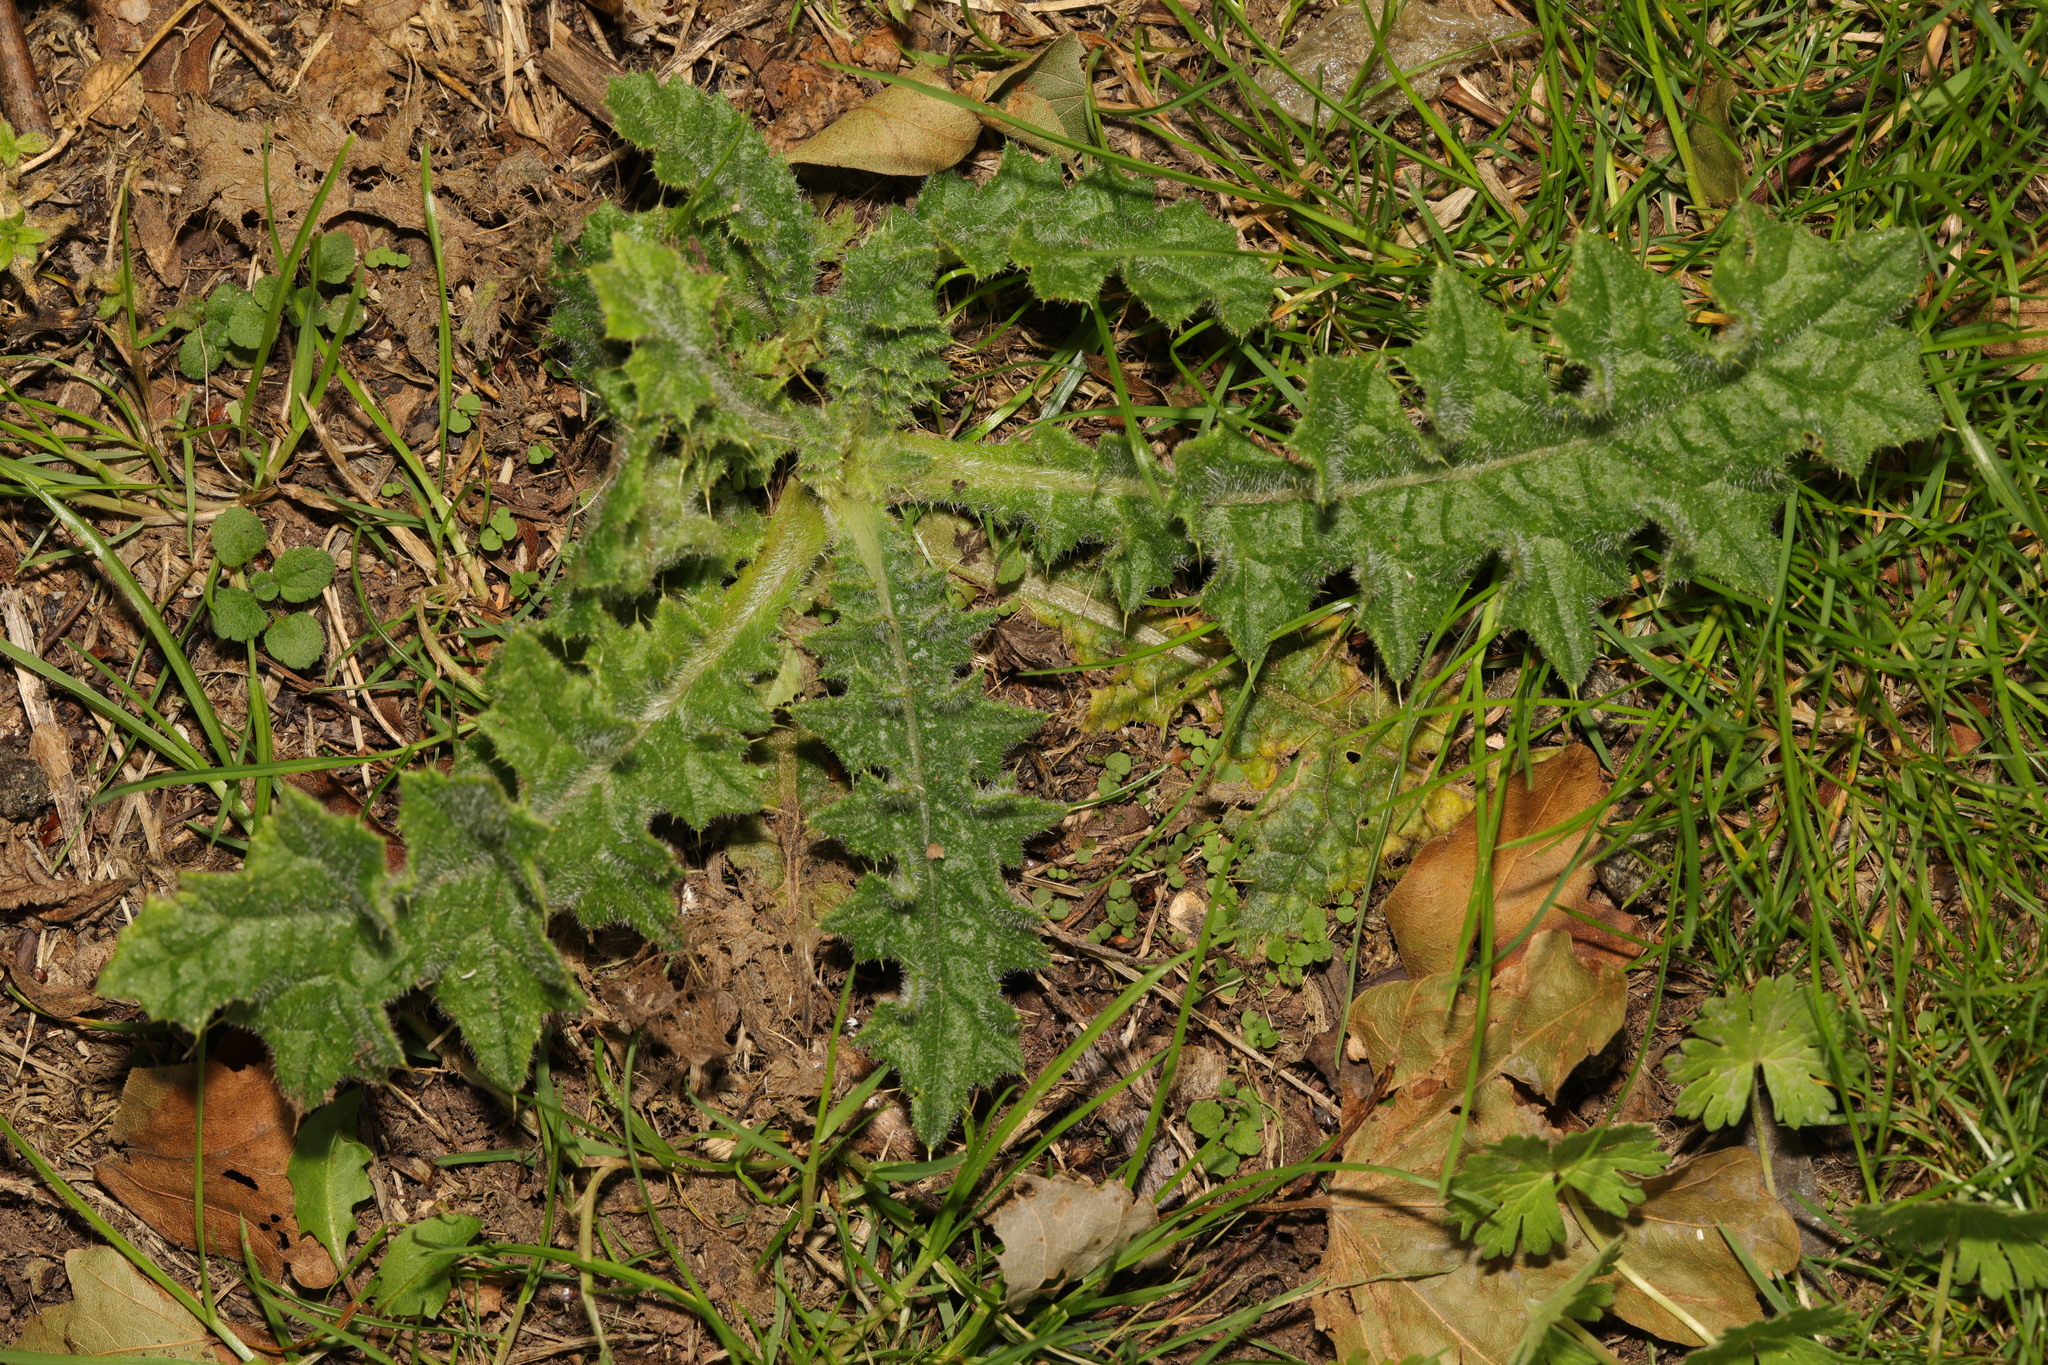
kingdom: Plantae
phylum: Tracheophyta
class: Magnoliopsida
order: Asterales
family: Asteraceae
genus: Cirsium
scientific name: Cirsium vulgare
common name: Bull thistle
